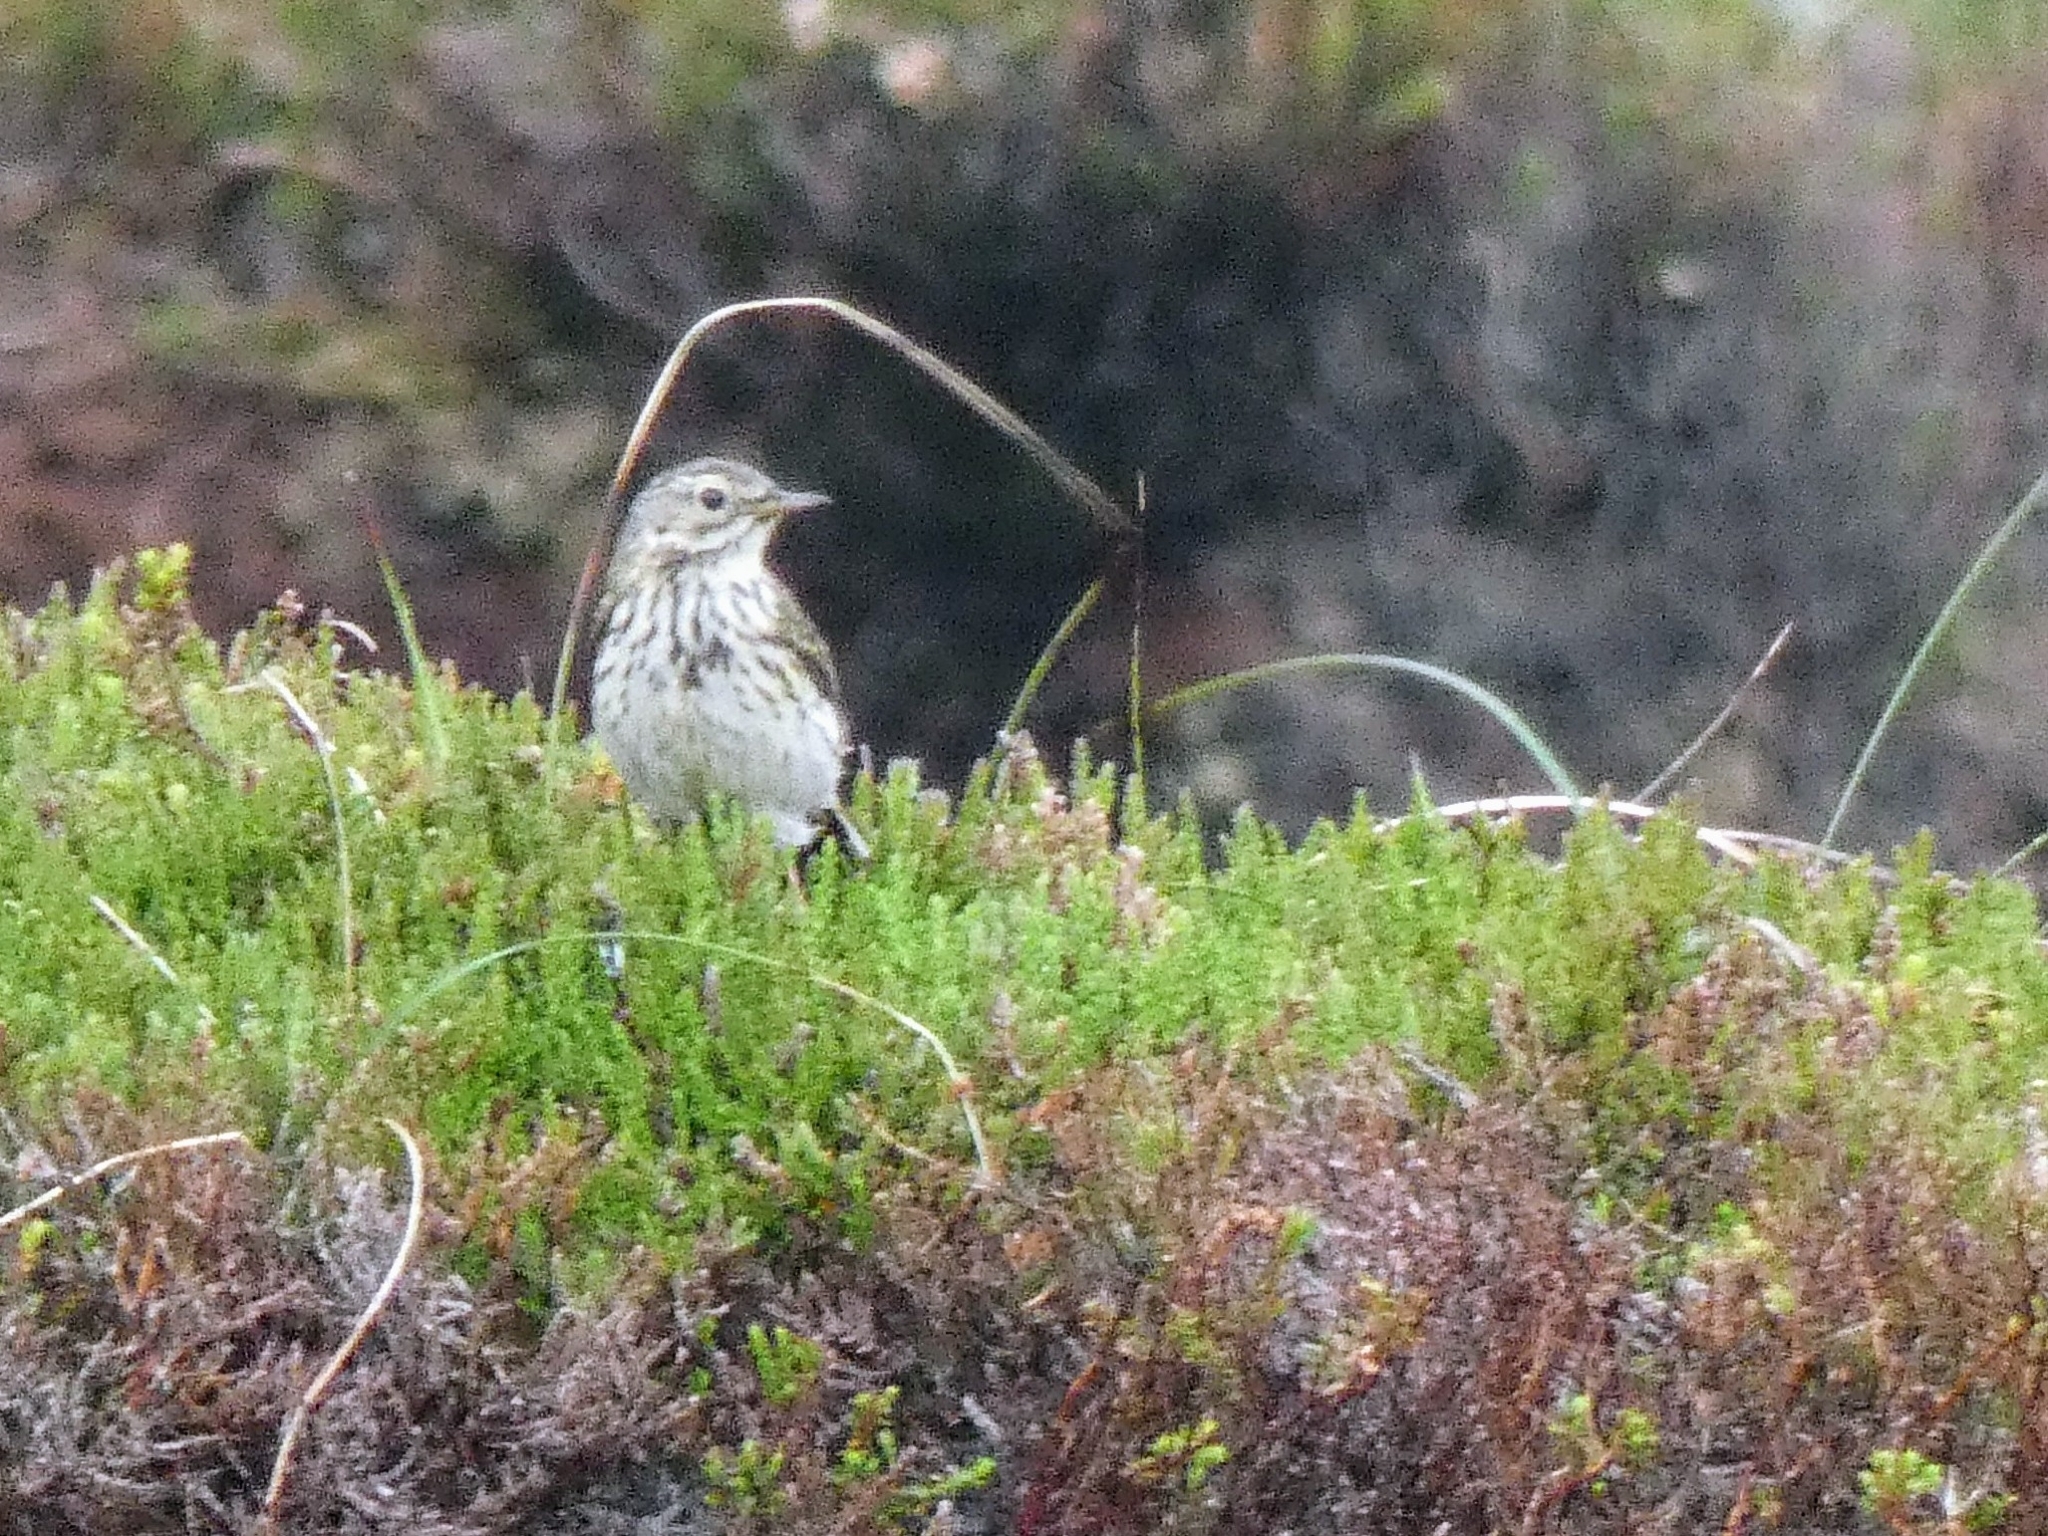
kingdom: Animalia
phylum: Chordata
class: Aves
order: Passeriformes
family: Motacillidae
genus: Anthus
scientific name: Anthus pratensis
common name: Meadow pipit
